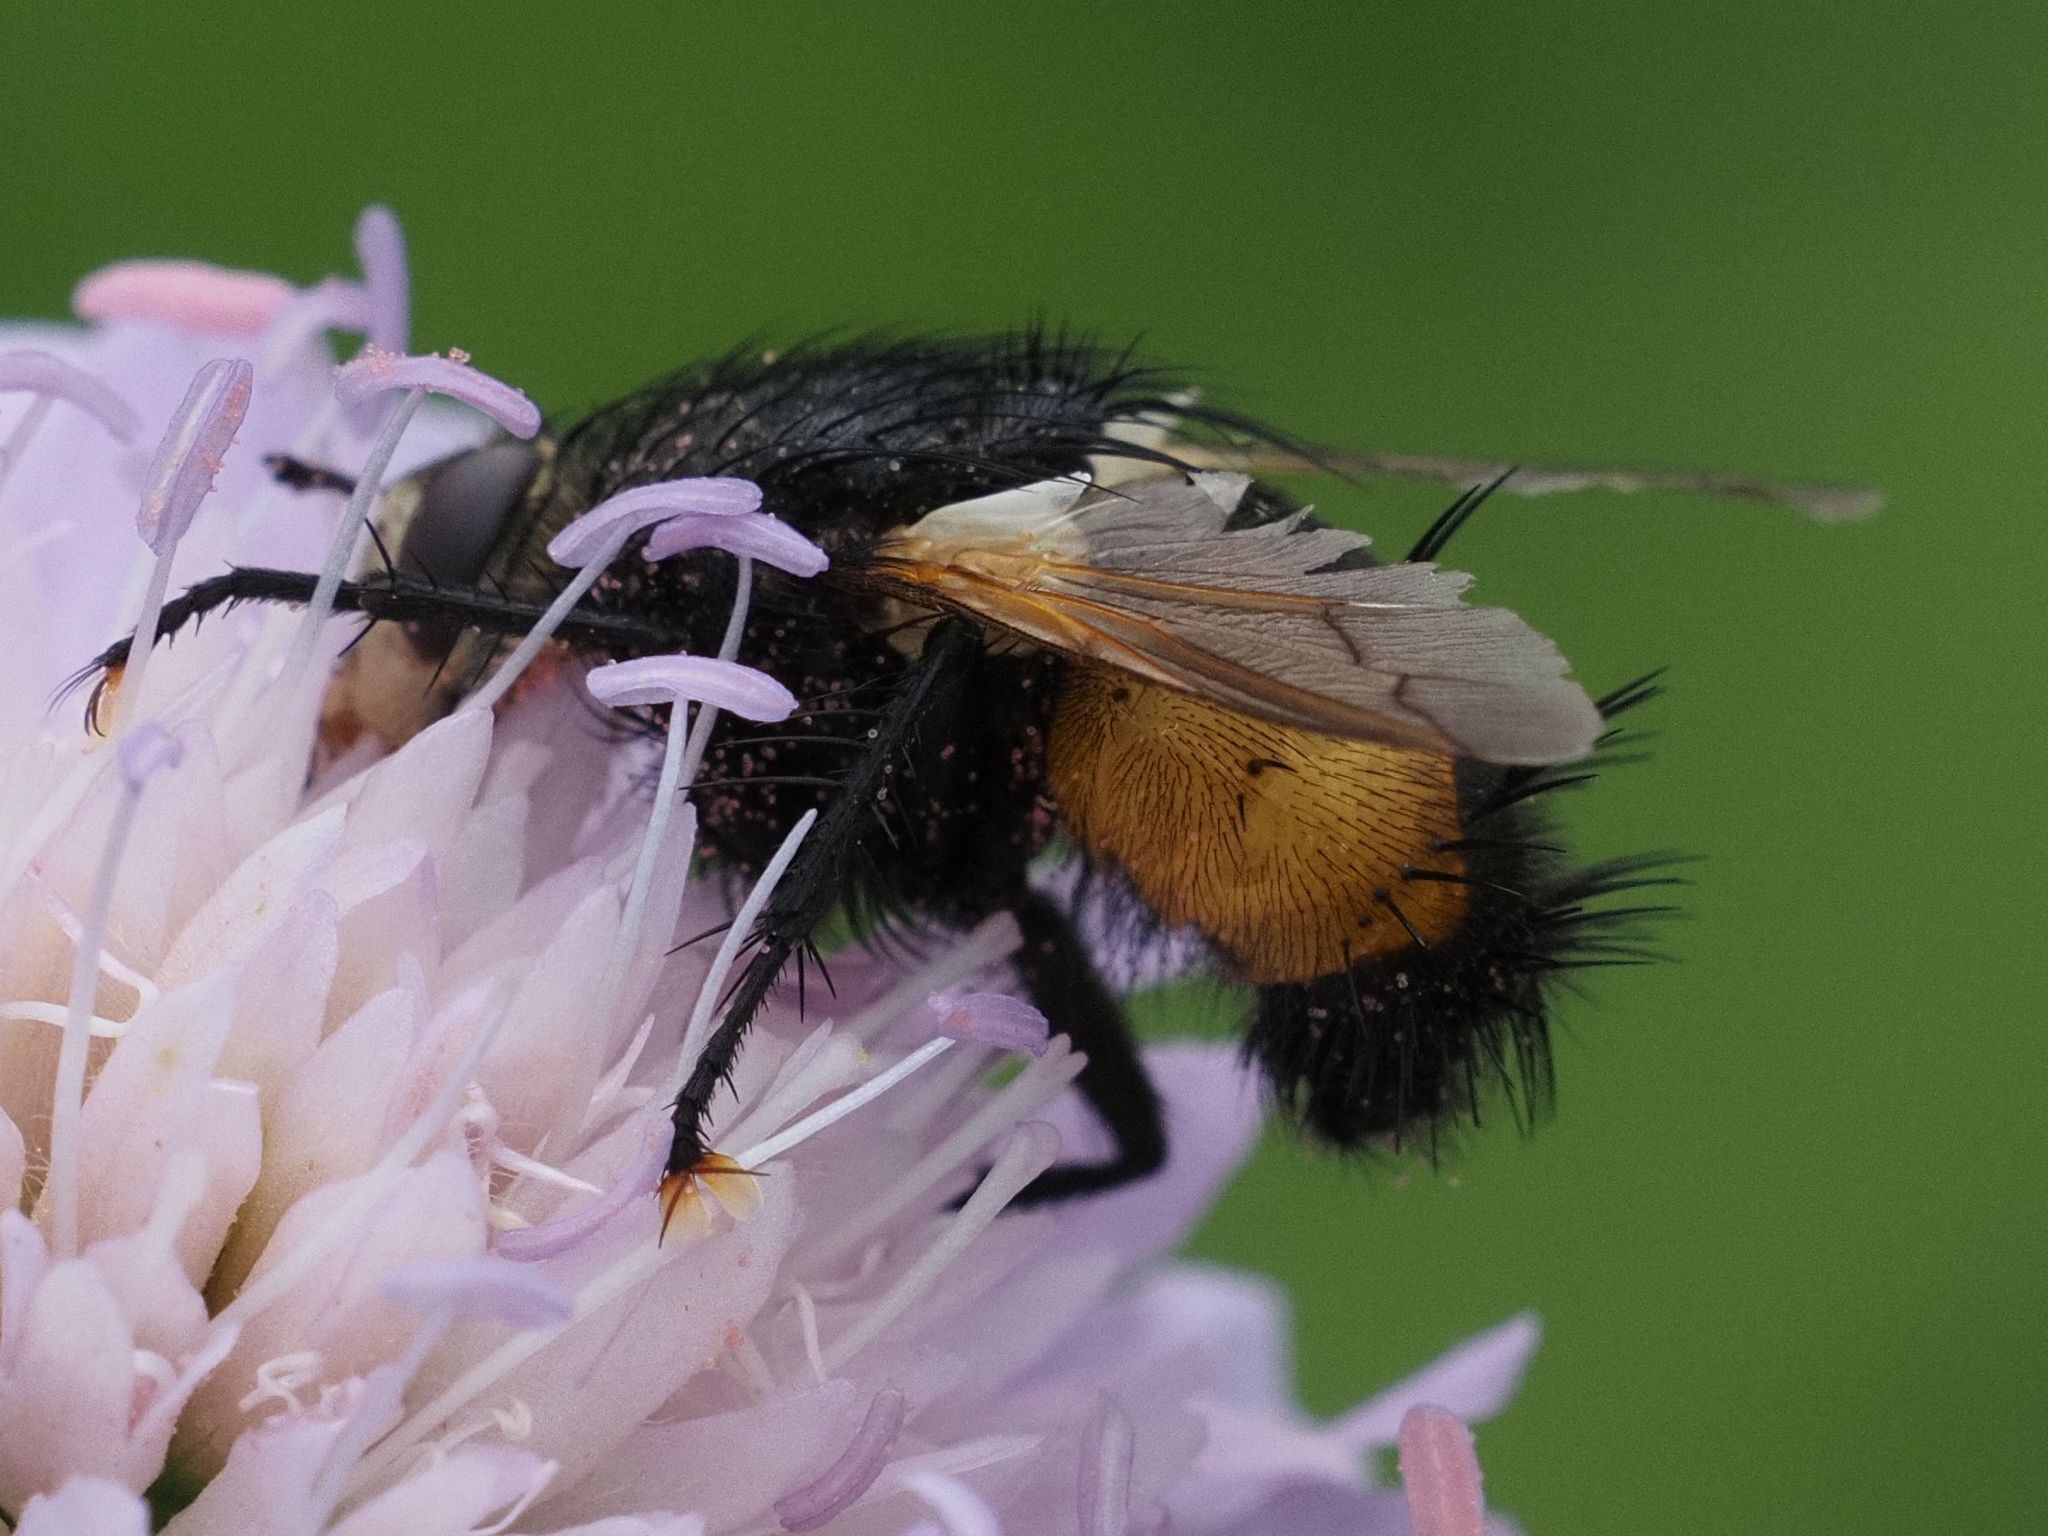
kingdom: Animalia
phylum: Arthropoda
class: Insecta
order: Diptera
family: Tachinidae
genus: Nowickia
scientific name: Nowickia ferox
